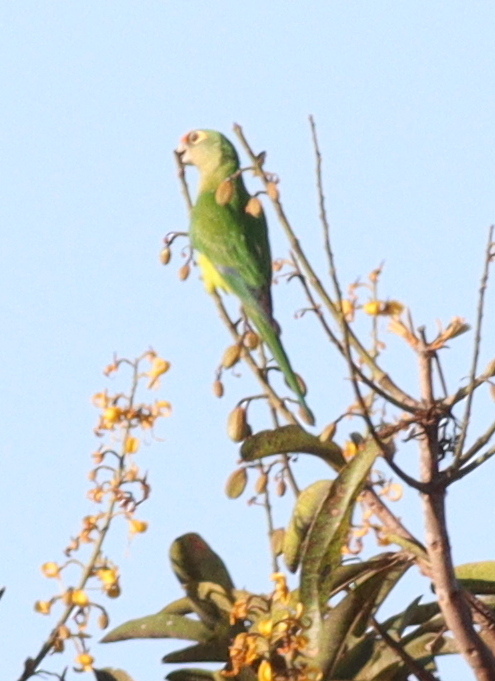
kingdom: Animalia
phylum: Chordata
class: Aves
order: Psittaciformes
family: Psittacidae
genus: Aratinga
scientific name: Aratinga aurea
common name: Peach-fronted parakeet
